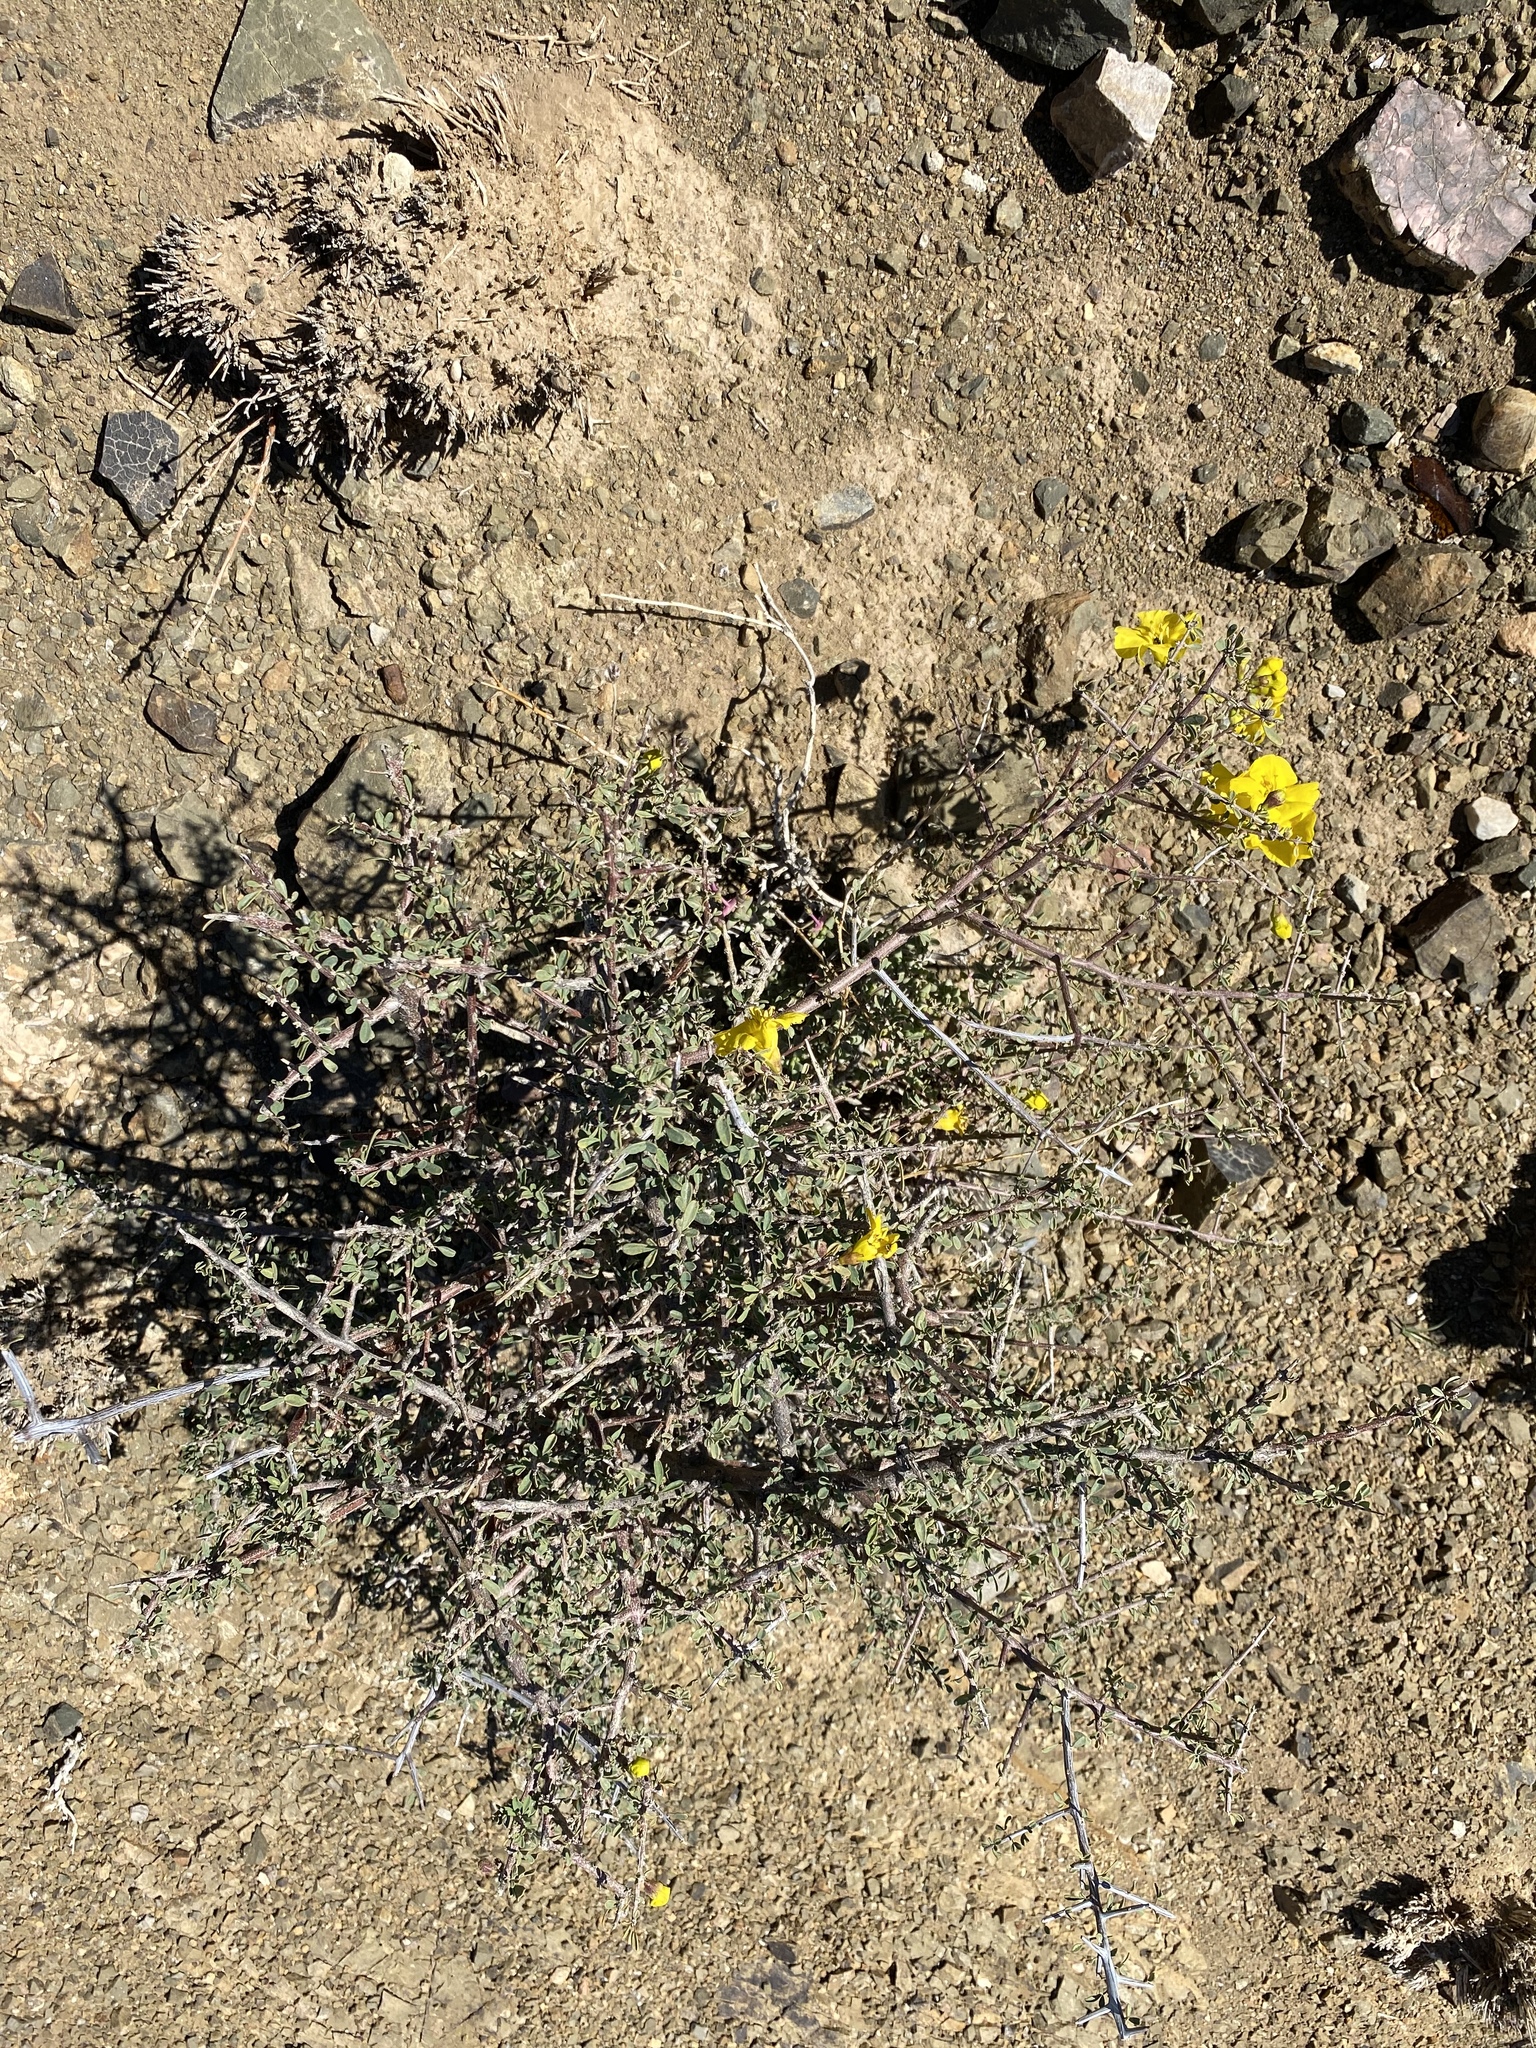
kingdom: Plantae
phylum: Tracheophyta
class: Magnoliopsida
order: Lamiales
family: Bignoniaceae
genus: Rhigozum
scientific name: Rhigozum obovatum
